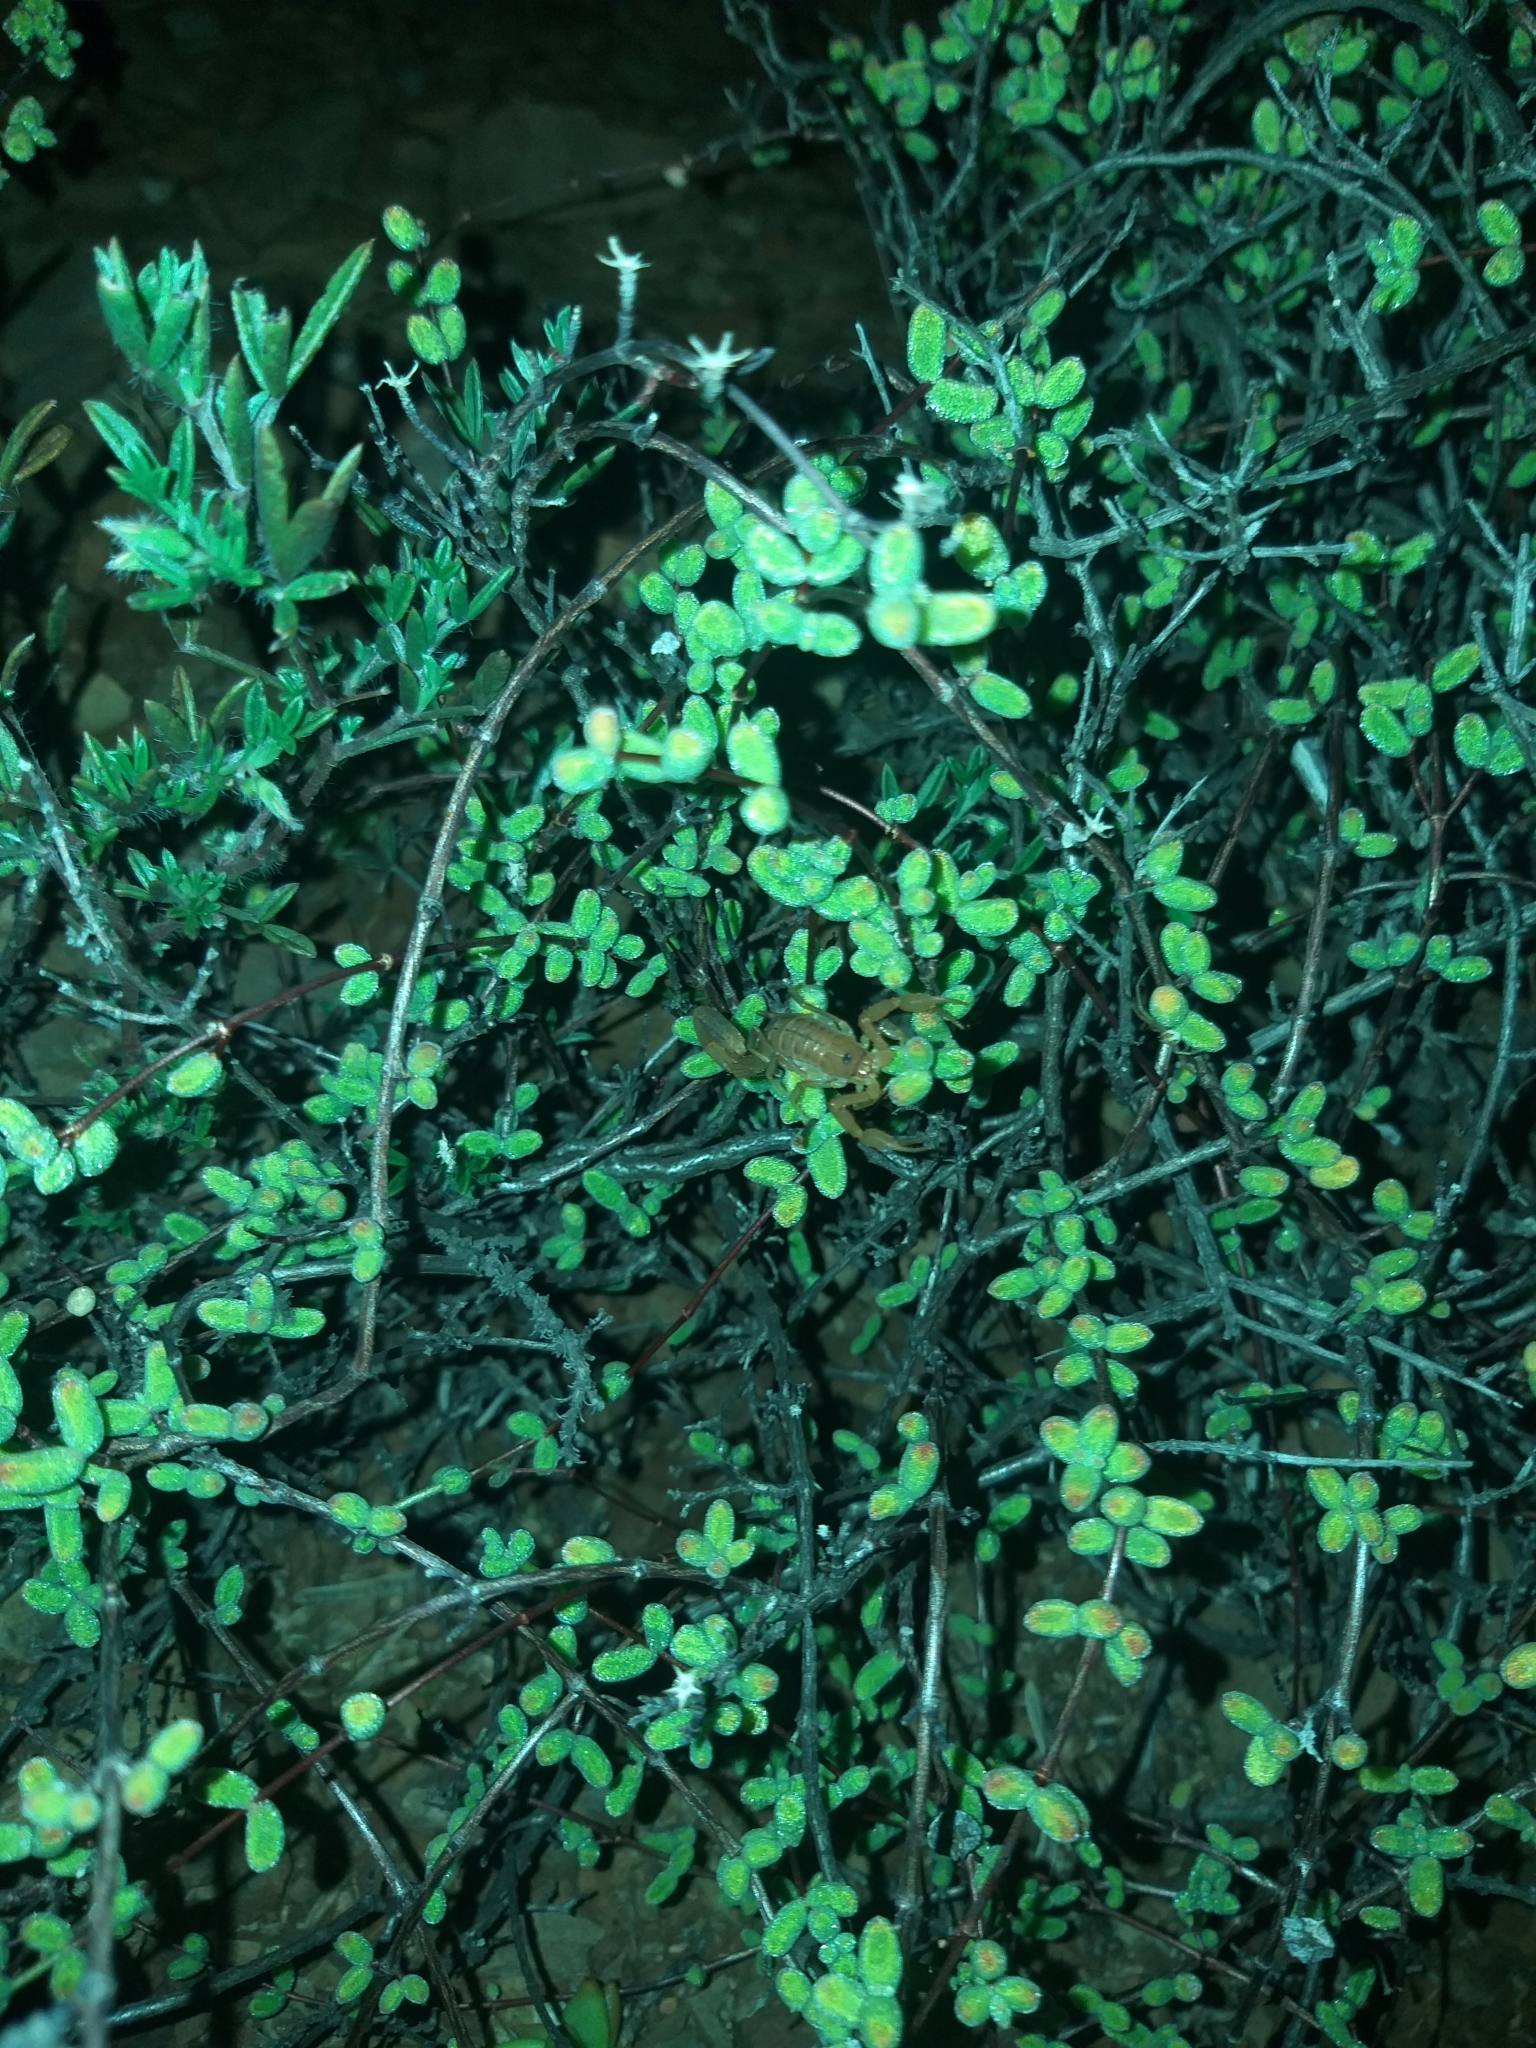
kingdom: Animalia
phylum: Arthropoda
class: Arachnida
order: Scorpiones
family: Buthidae
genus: Uroplectes
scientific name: Uroplectes carinatus
